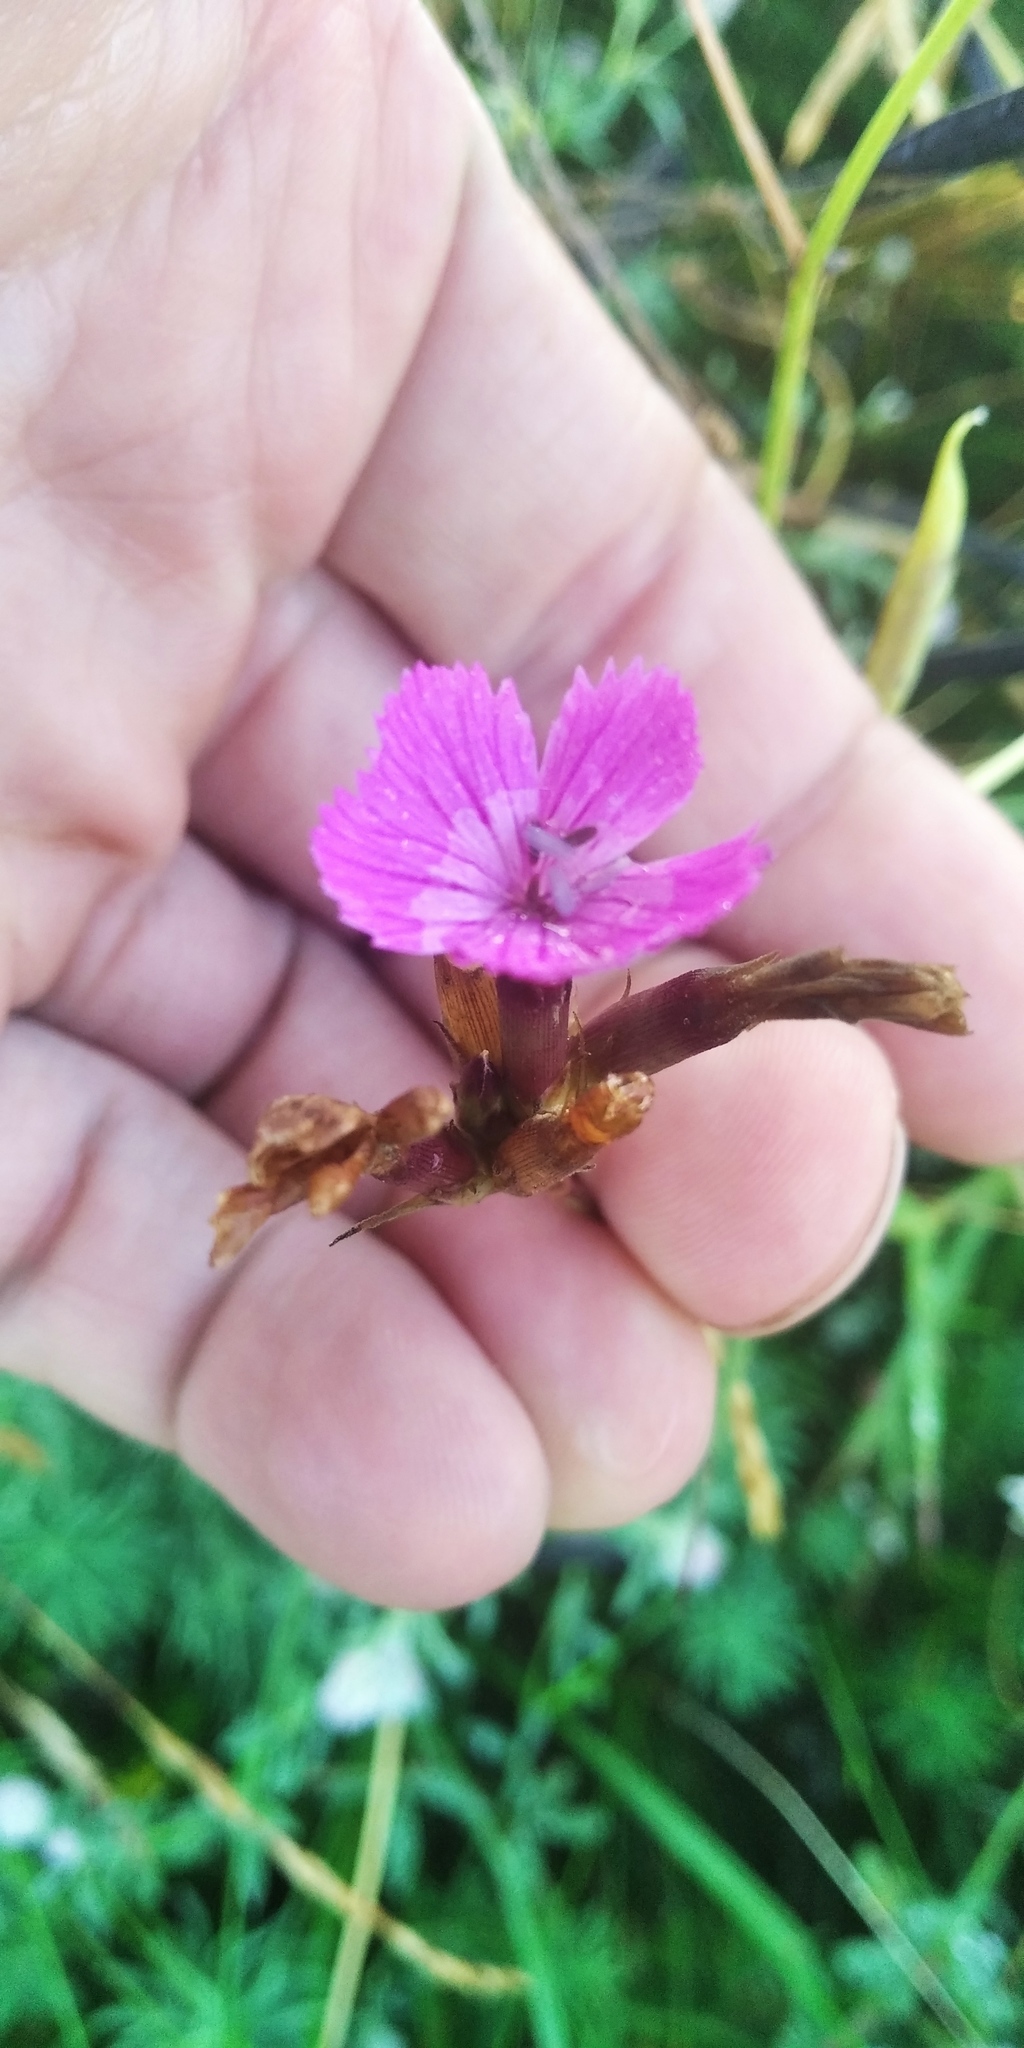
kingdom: Plantae
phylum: Tracheophyta
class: Magnoliopsida
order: Caryophyllales
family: Caryophyllaceae
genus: Dianthus
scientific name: Dianthus deltoides
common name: Maiden pink
